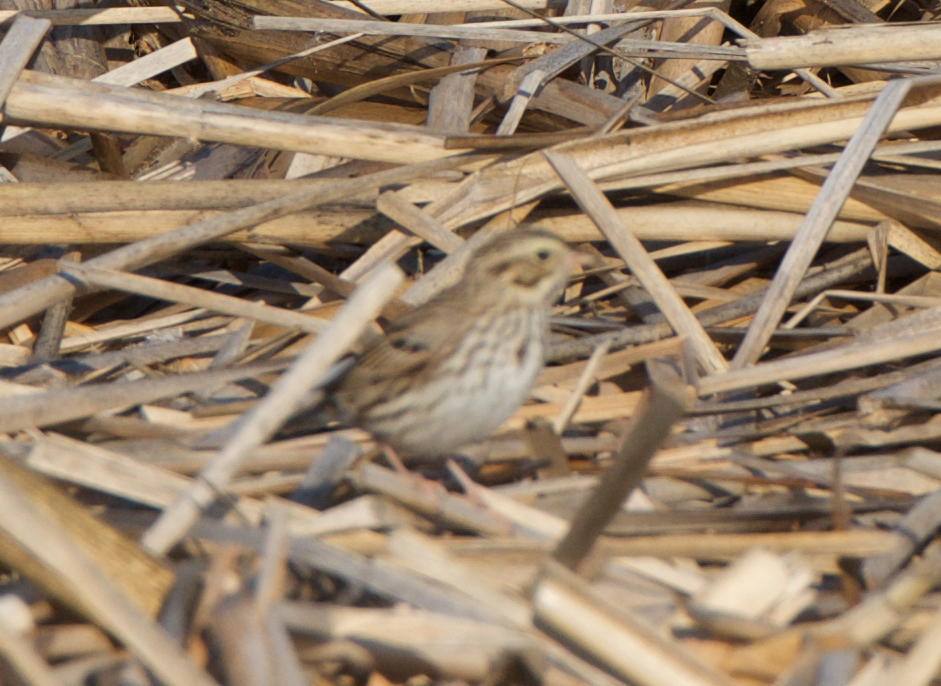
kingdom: Animalia
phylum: Chordata
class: Aves
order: Passeriformes
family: Passerellidae
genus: Passerculus
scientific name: Passerculus sandwichensis
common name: Savannah sparrow
